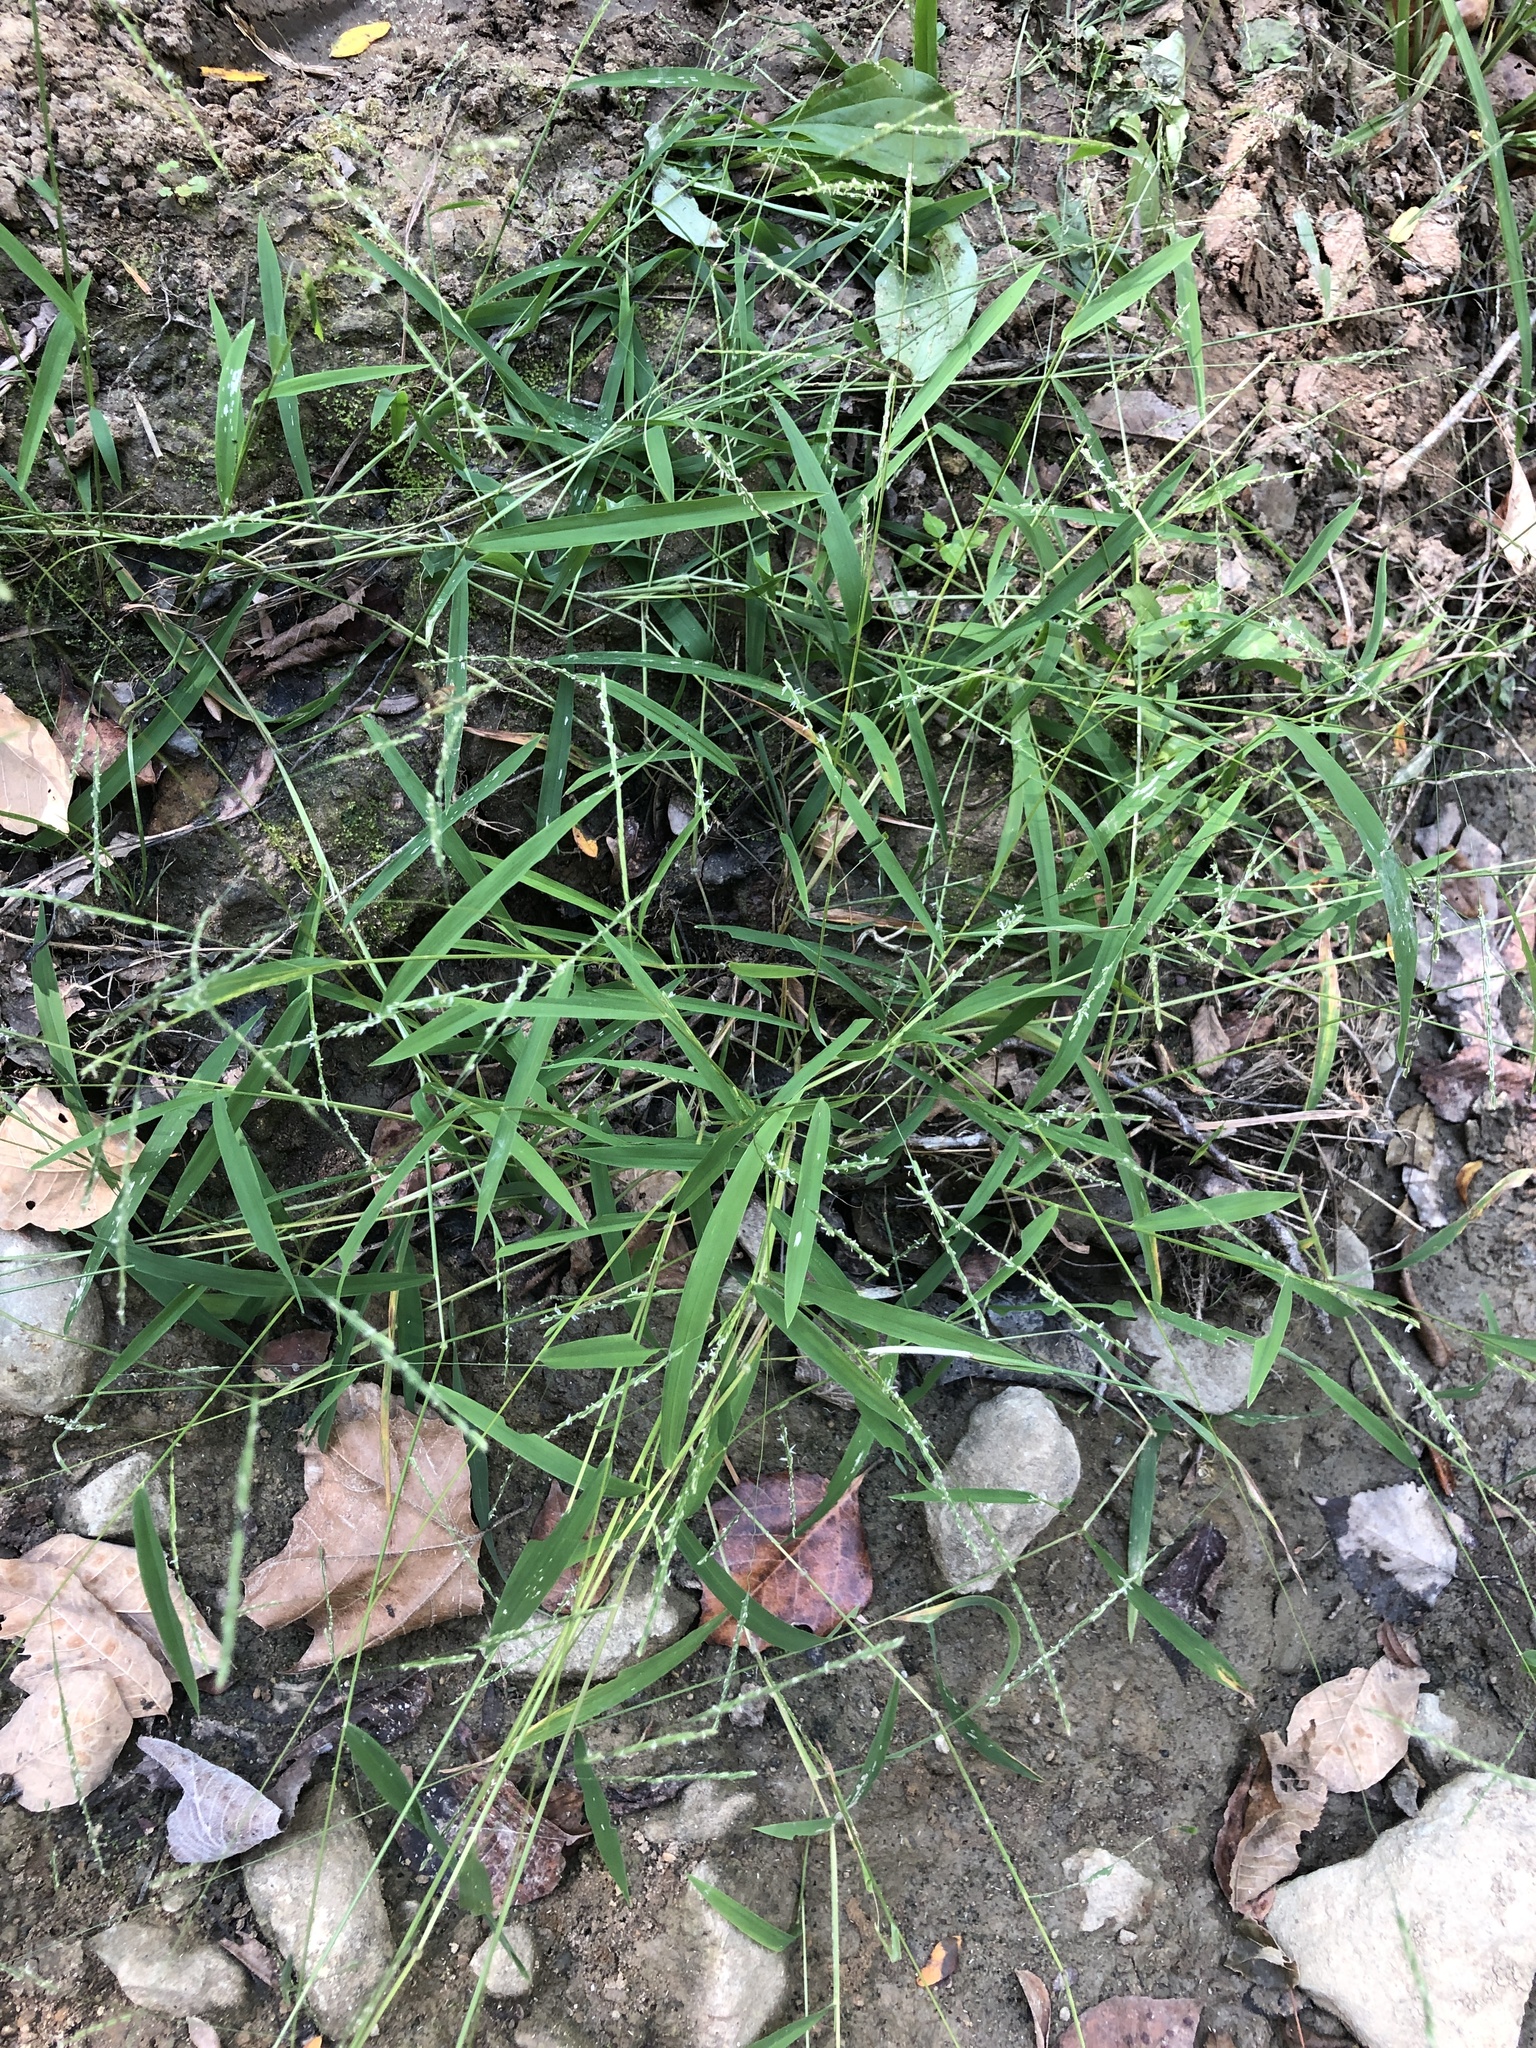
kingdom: Plantae
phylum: Tracheophyta
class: Liliopsida
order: Poales
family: Poaceae
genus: Leersia
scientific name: Leersia virginica
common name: White cutgrass
